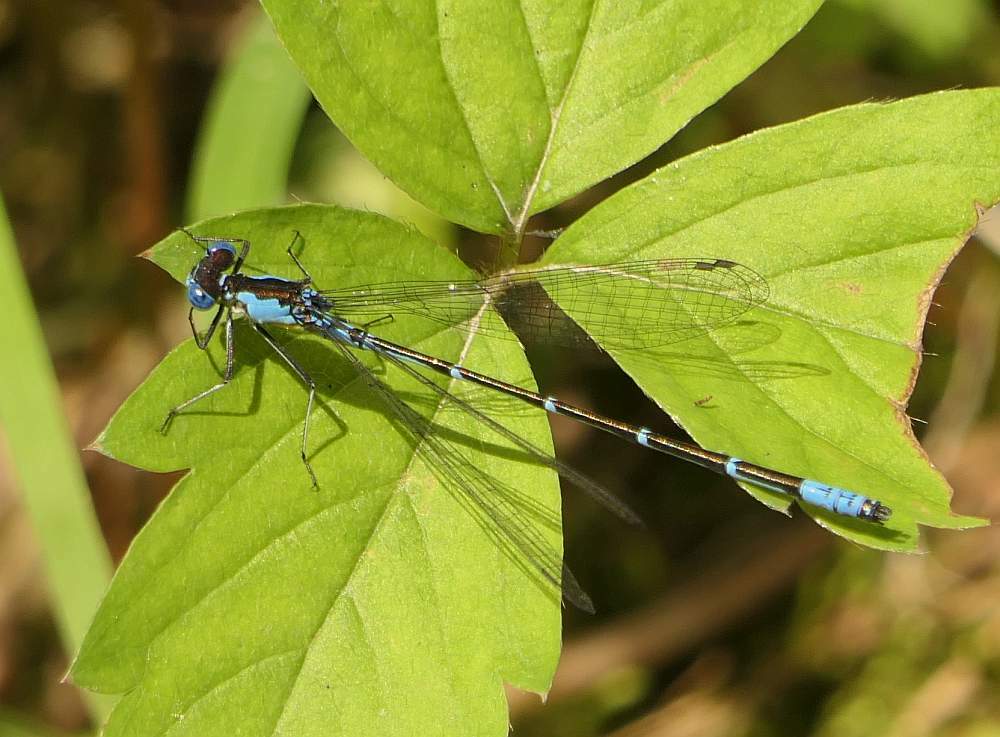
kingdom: Animalia
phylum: Arthropoda
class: Insecta
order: Odonata
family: Coenagrionidae
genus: Chromagrion
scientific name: Chromagrion conditum
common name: Aurora damsel
